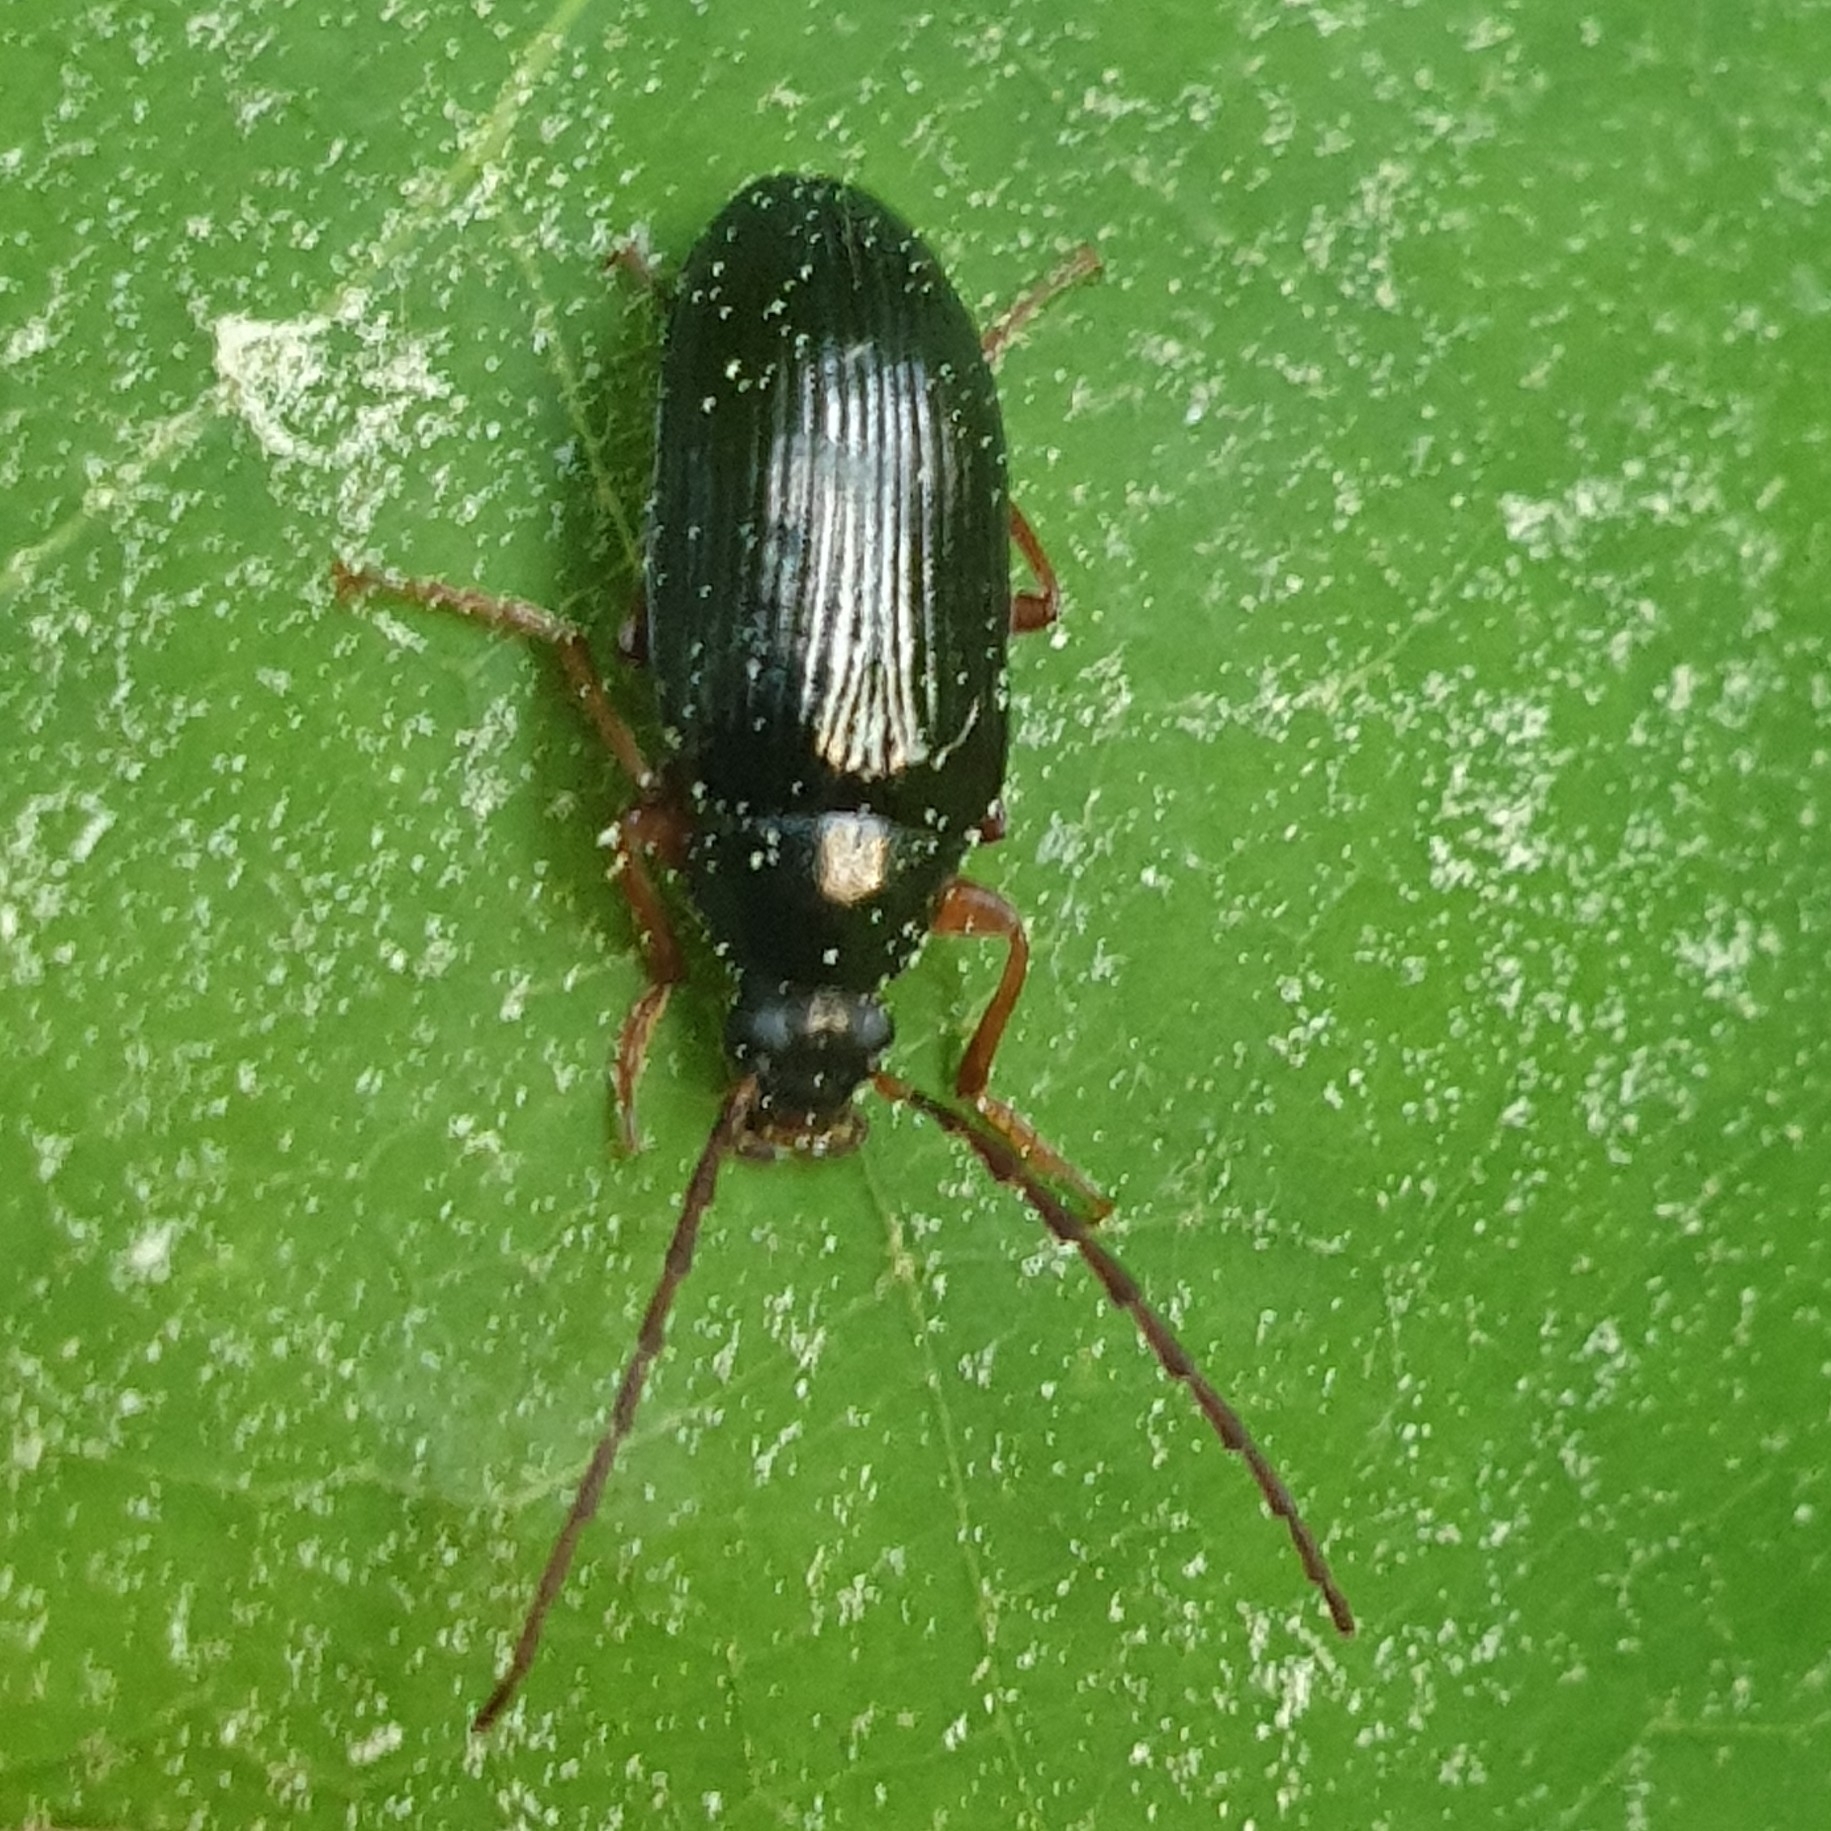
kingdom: Animalia
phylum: Arthropoda
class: Insecta
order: Coleoptera
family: Tenebrionidae
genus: Gonodera
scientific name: Gonodera luperus
